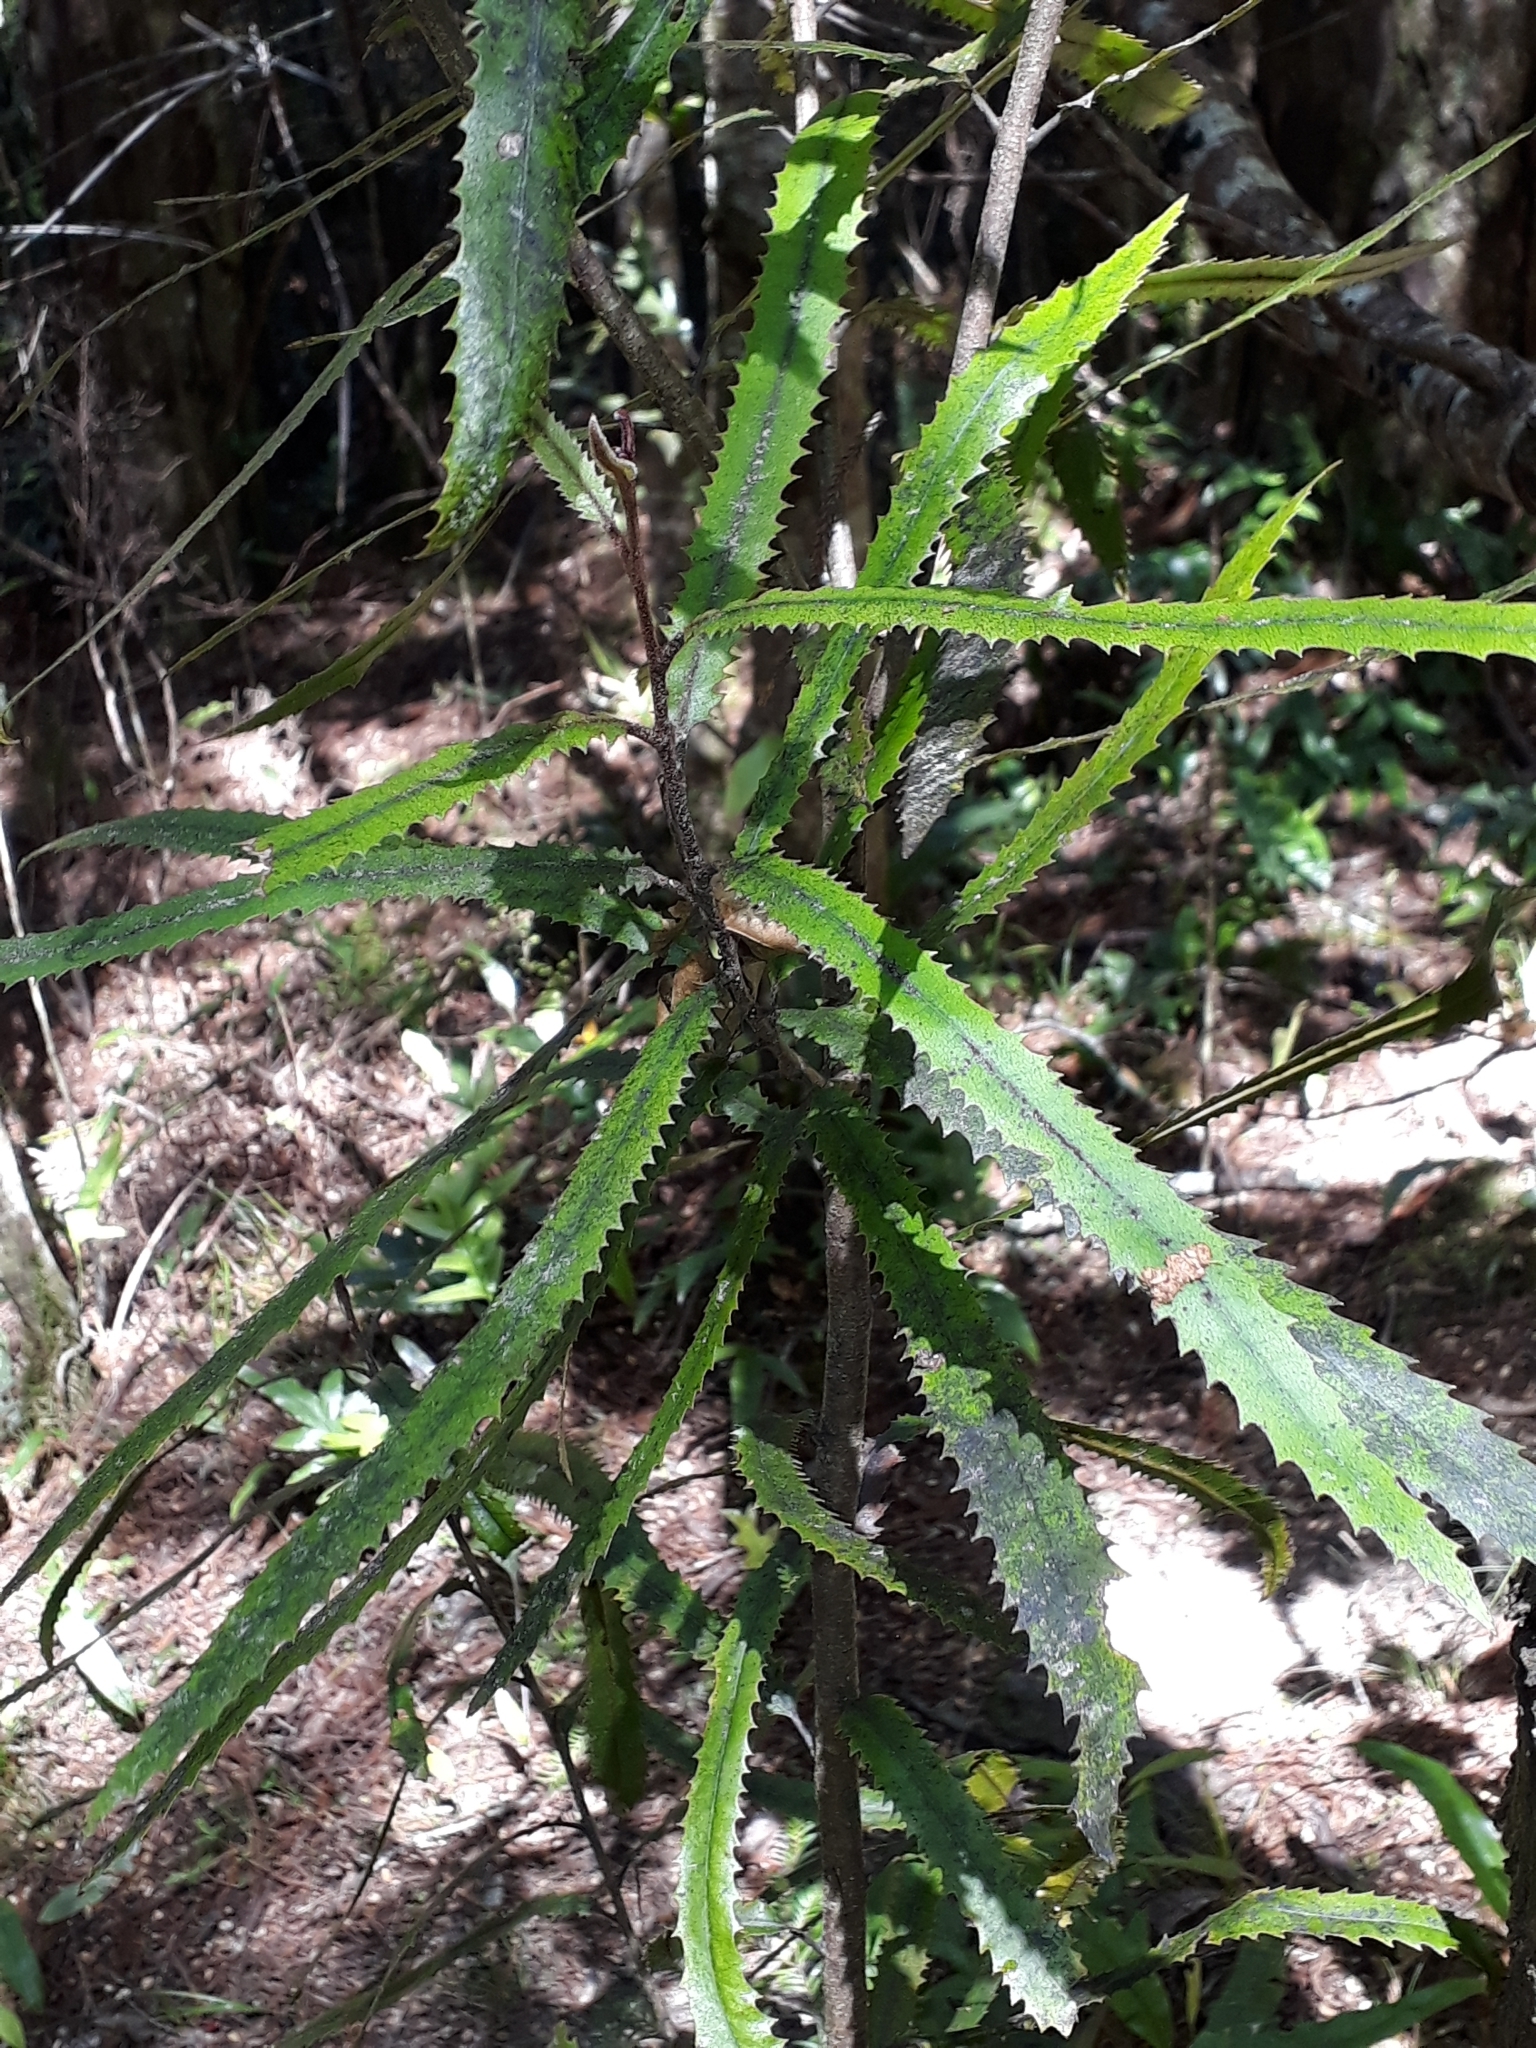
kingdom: Plantae
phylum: Tracheophyta
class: Magnoliopsida
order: Proteales
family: Proteaceae
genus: Knightia
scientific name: Knightia excelsa
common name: New zealand-honeysuckle
